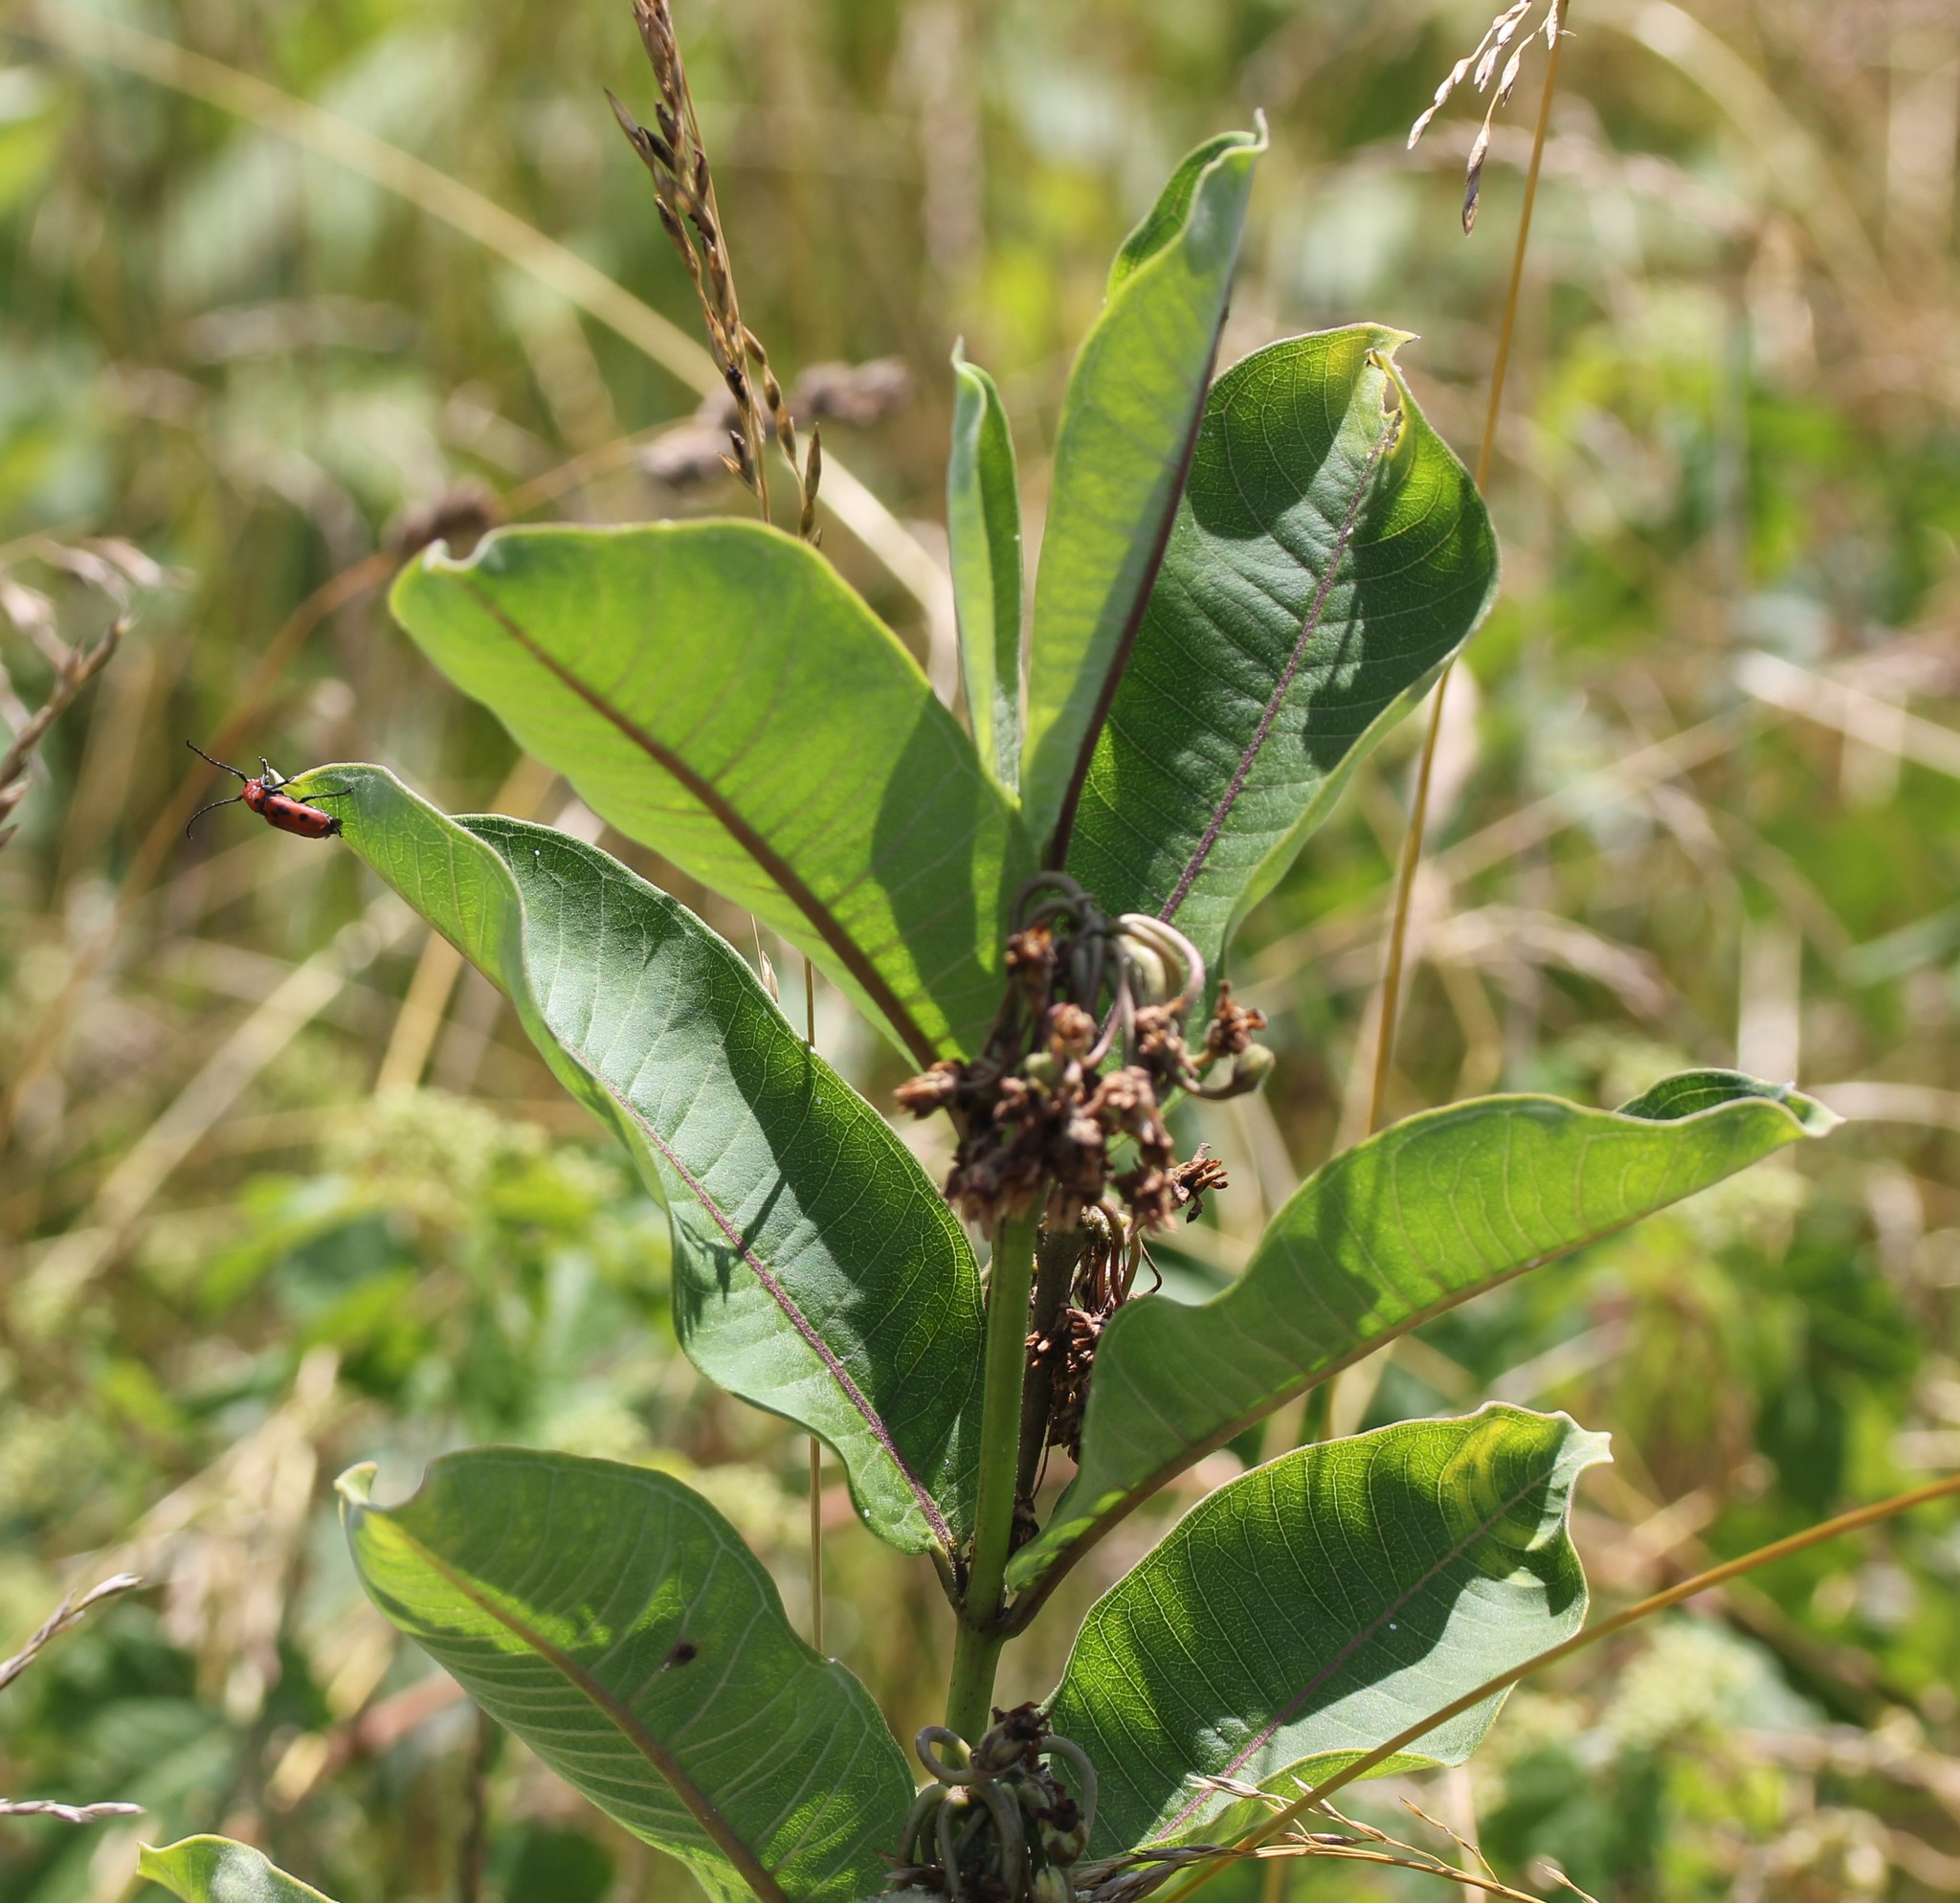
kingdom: Plantae
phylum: Tracheophyta
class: Magnoliopsida
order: Gentianales
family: Apocynaceae
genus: Asclepias
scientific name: Asclepias syriaca
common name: Common milkweed
